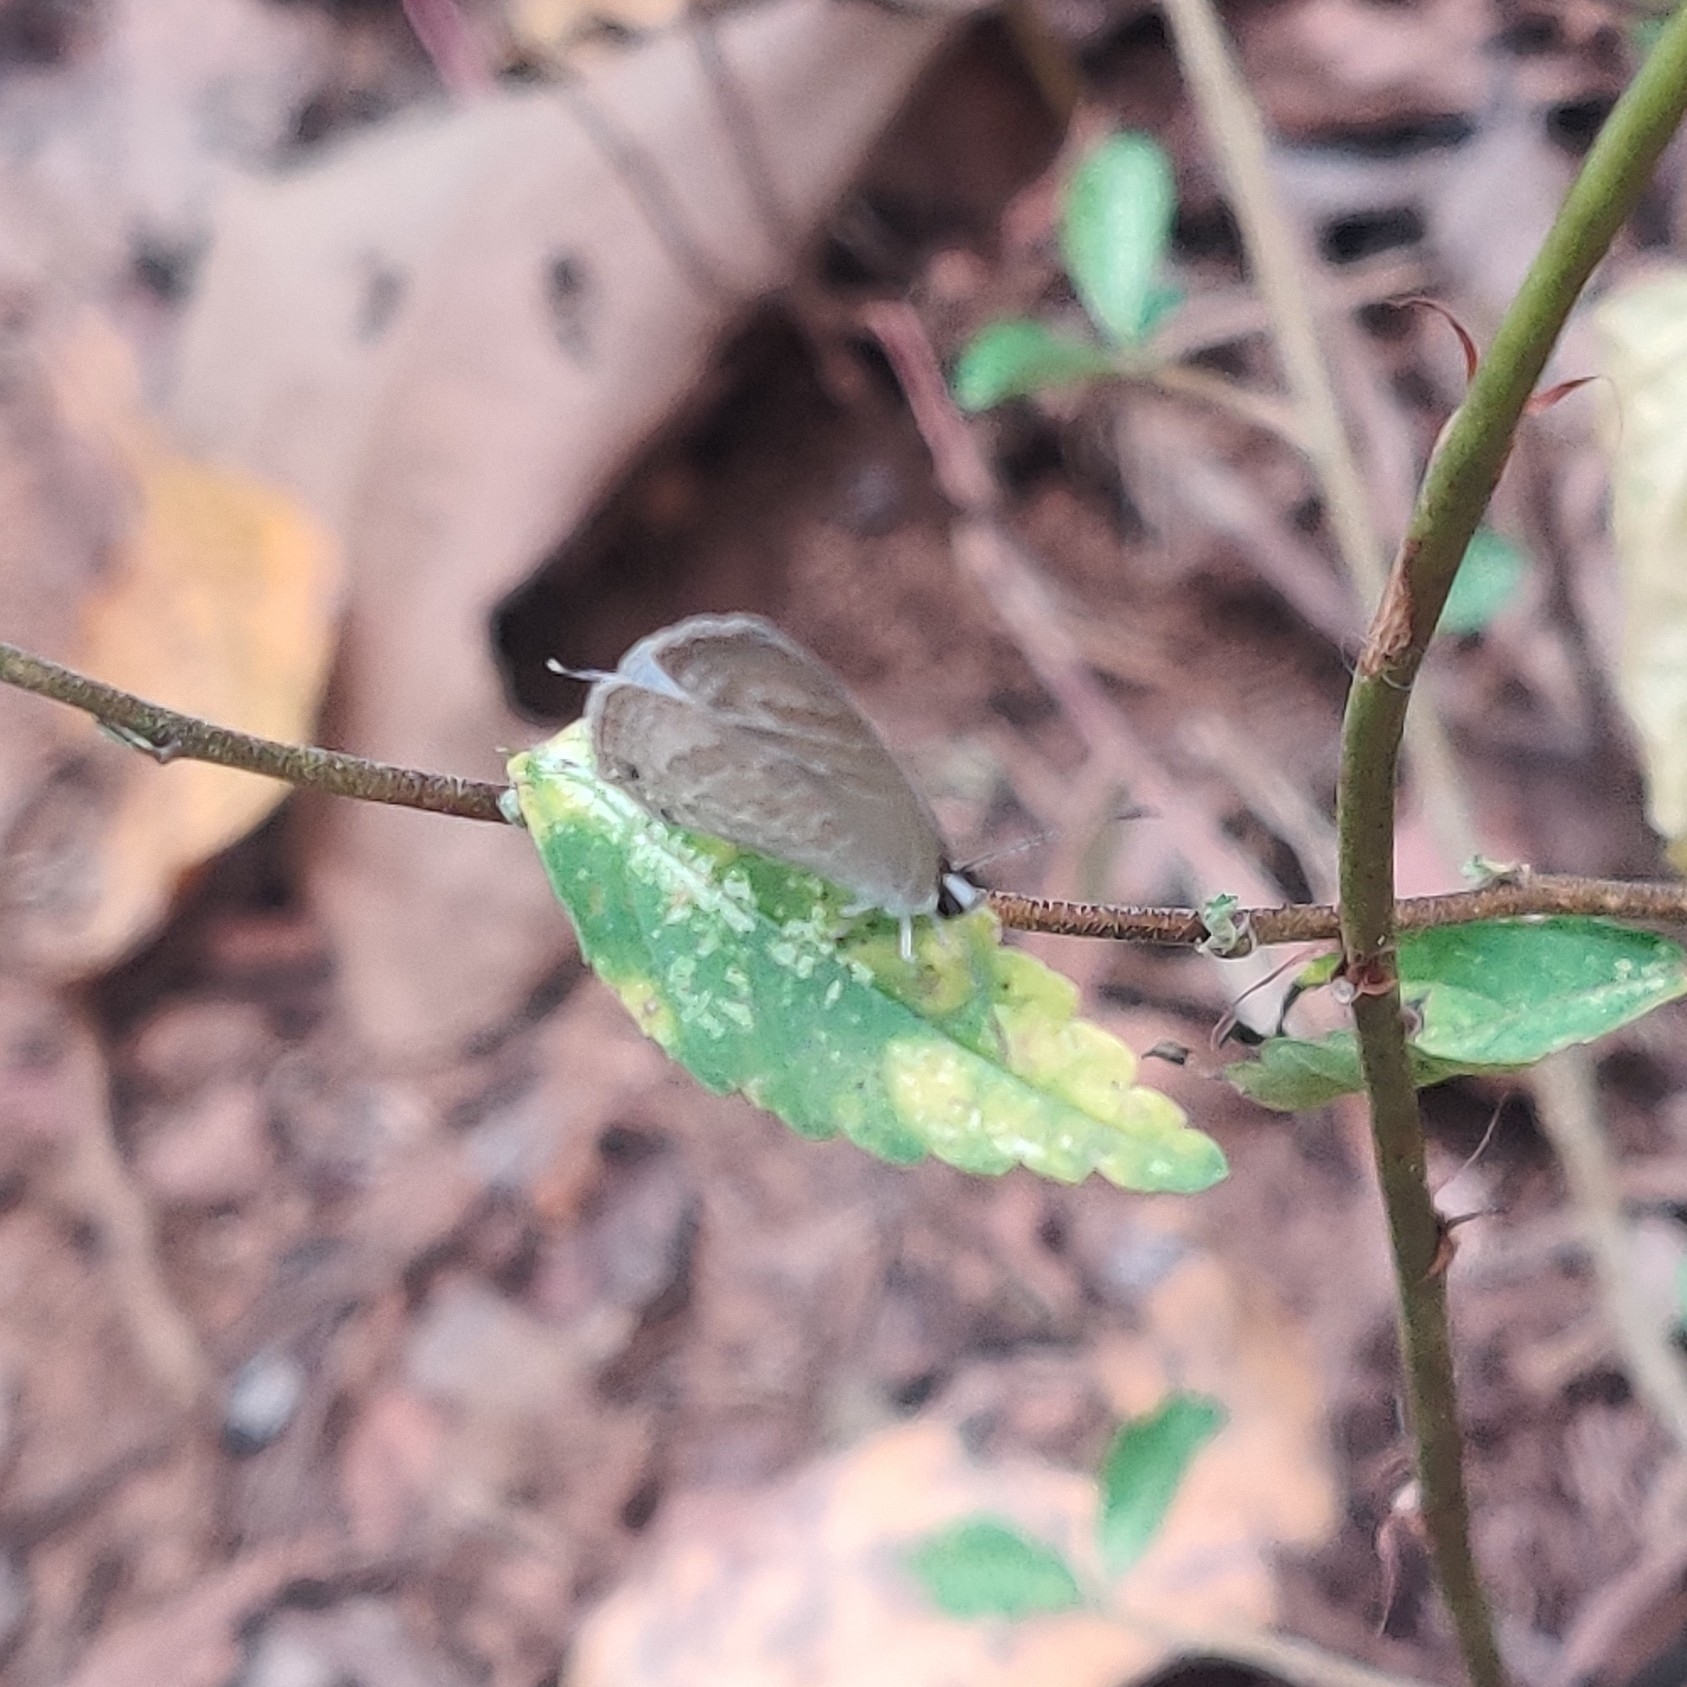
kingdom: Animalia
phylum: Arthropoda
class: Insecta
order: Lepidoptera
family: Lycaenidae
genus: Jamides
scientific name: Jamides celeno
